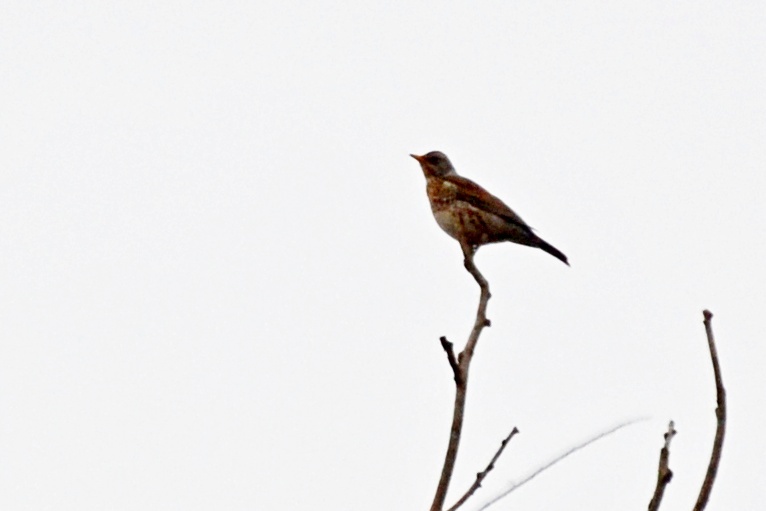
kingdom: Animalia
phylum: Chordata
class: Aves
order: Passeriformes
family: Turdidae
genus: Turdus
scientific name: Turdus pilaris
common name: Fieldfare
